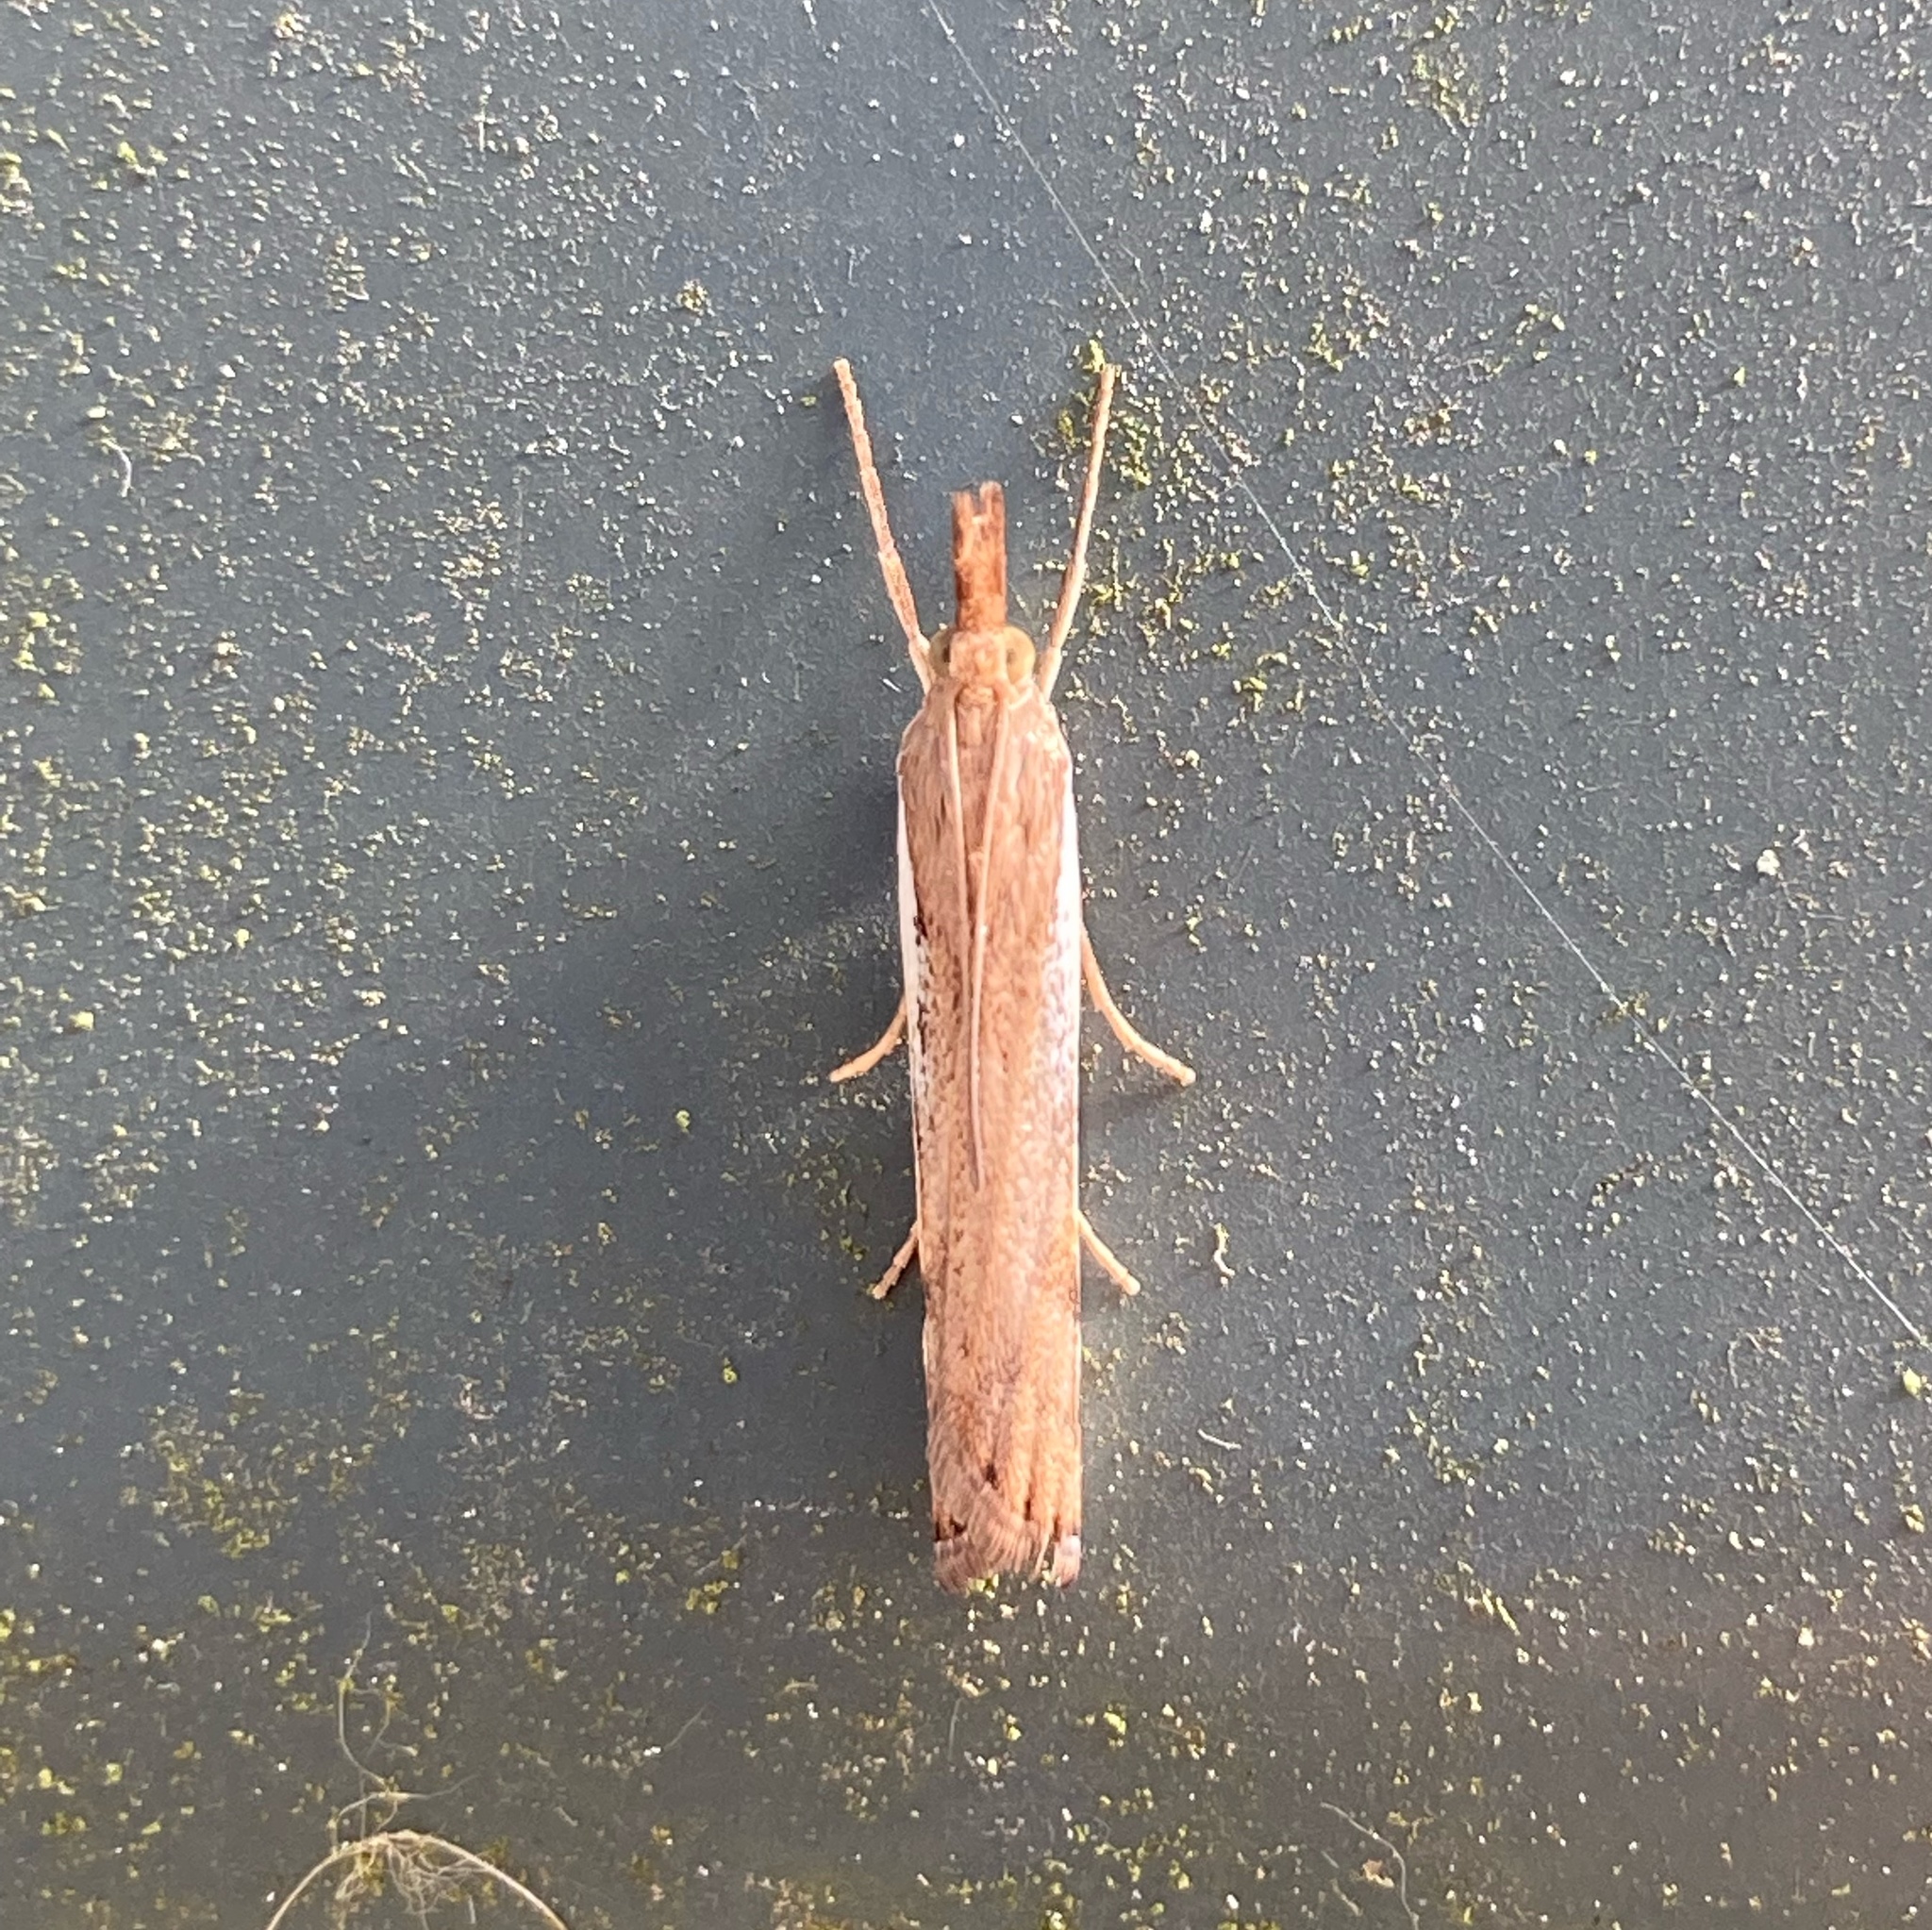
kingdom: Animalia
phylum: Arthropoda
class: Insecta
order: Lepidoptera
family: Crambidae
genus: Orocrambus
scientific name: Orocrambus flexuosellus
